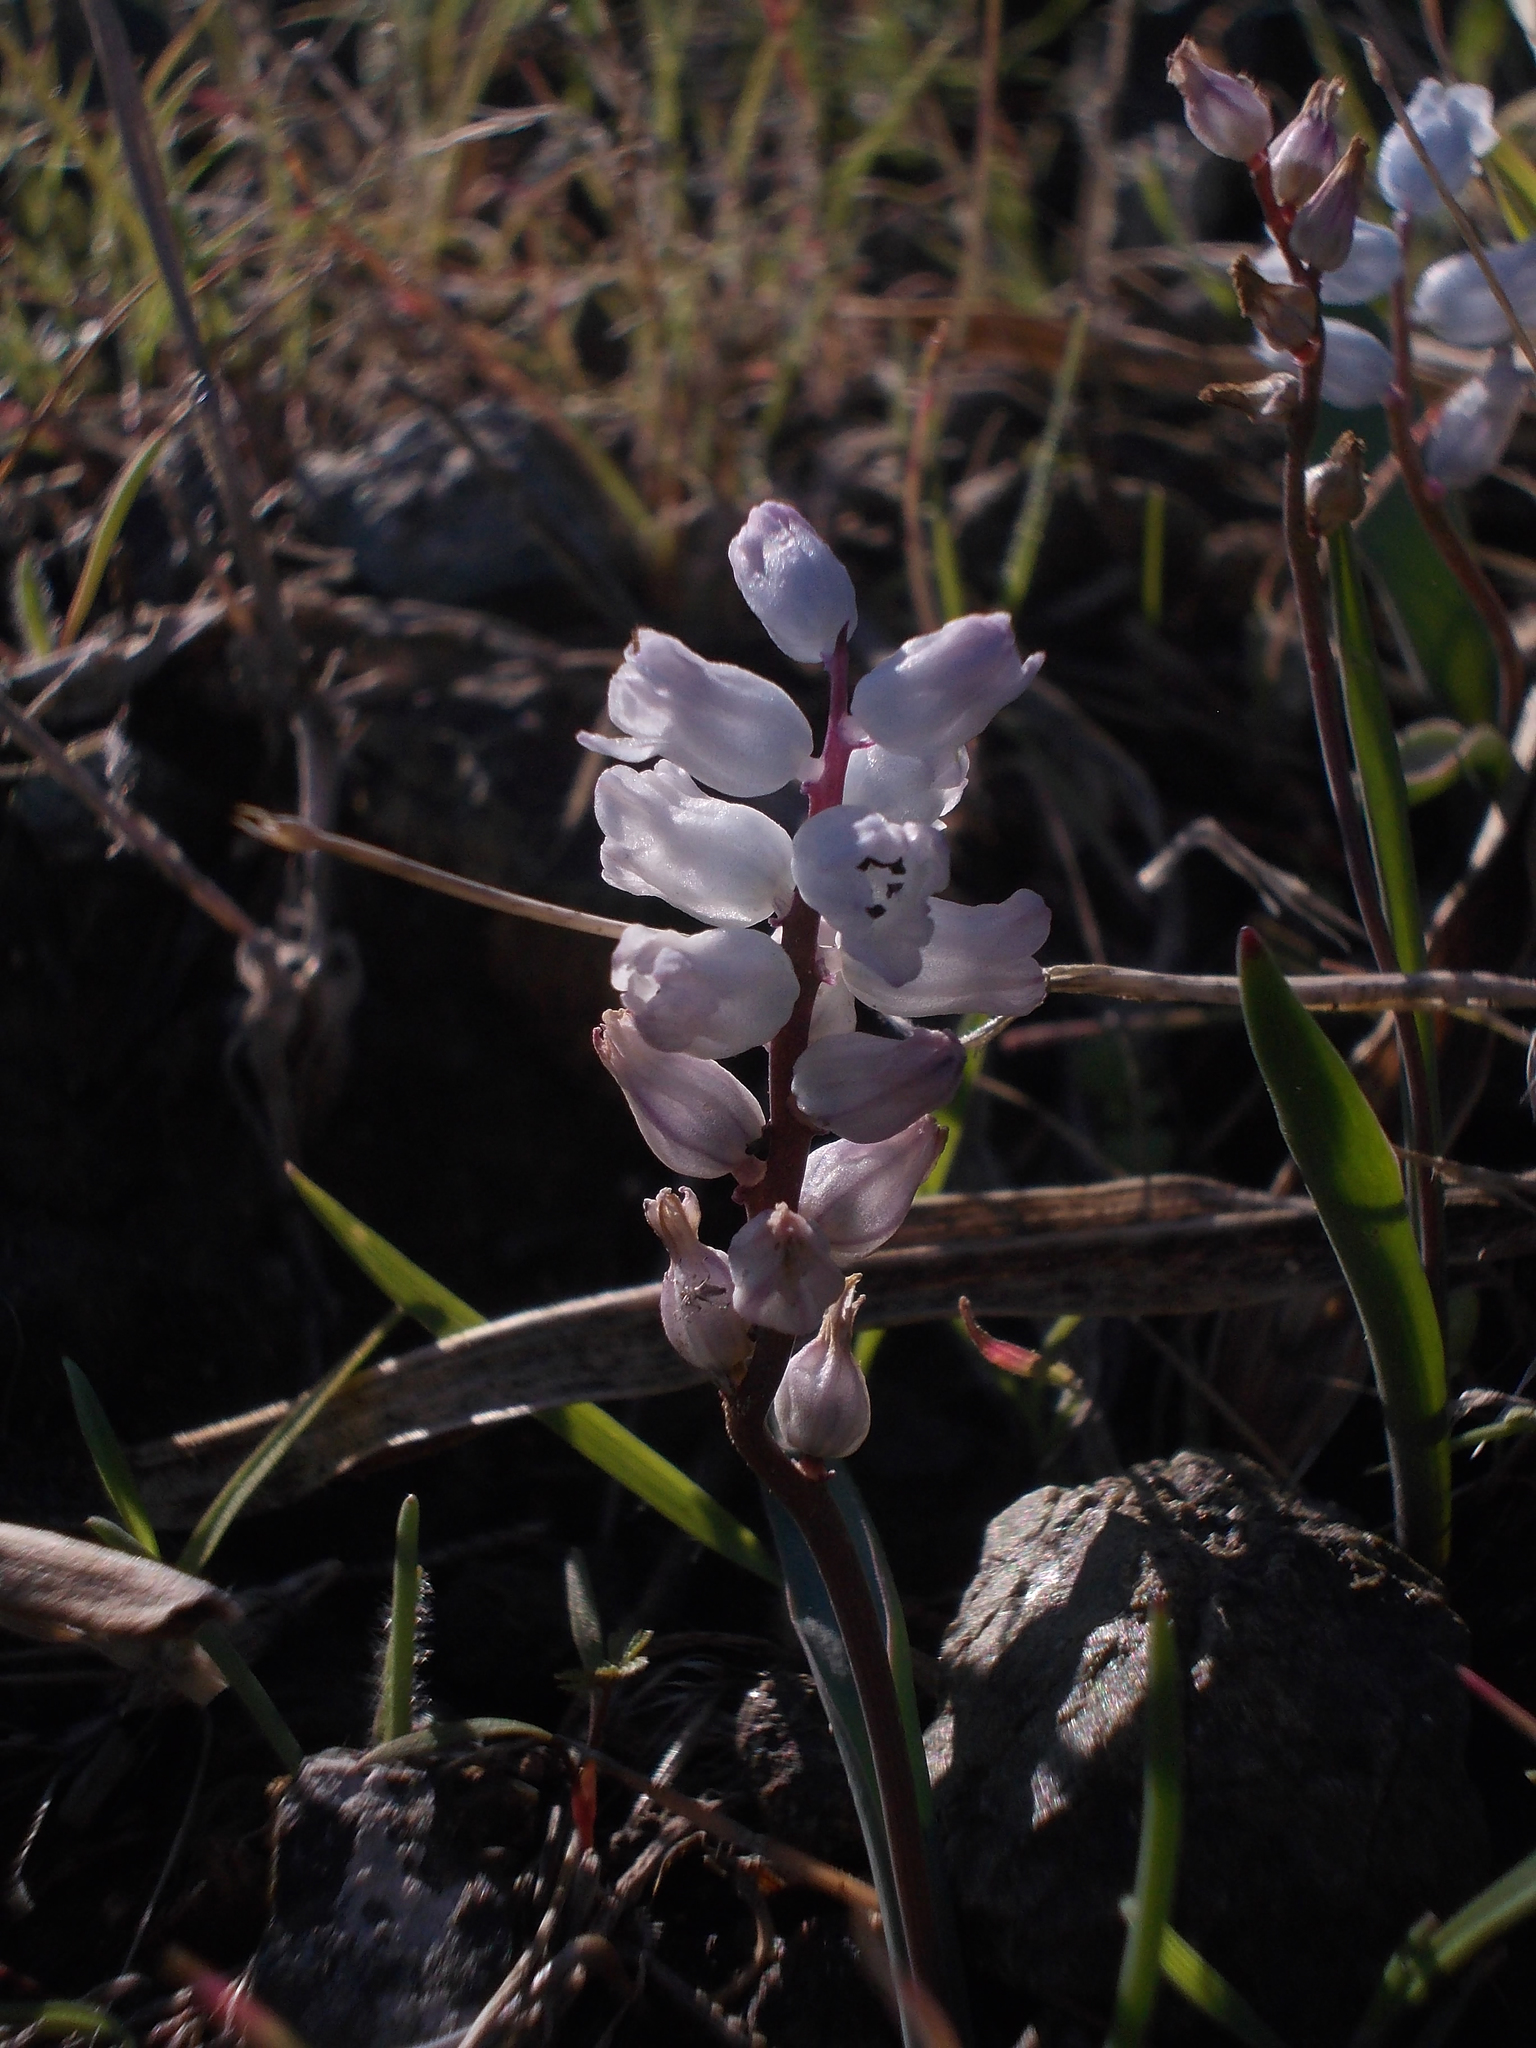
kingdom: Plantae
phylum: Tracheophyta
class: Liliopsida
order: Asparagales
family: Asparagaceae
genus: Hyacinthella
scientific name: Hyacinthella millingenii
